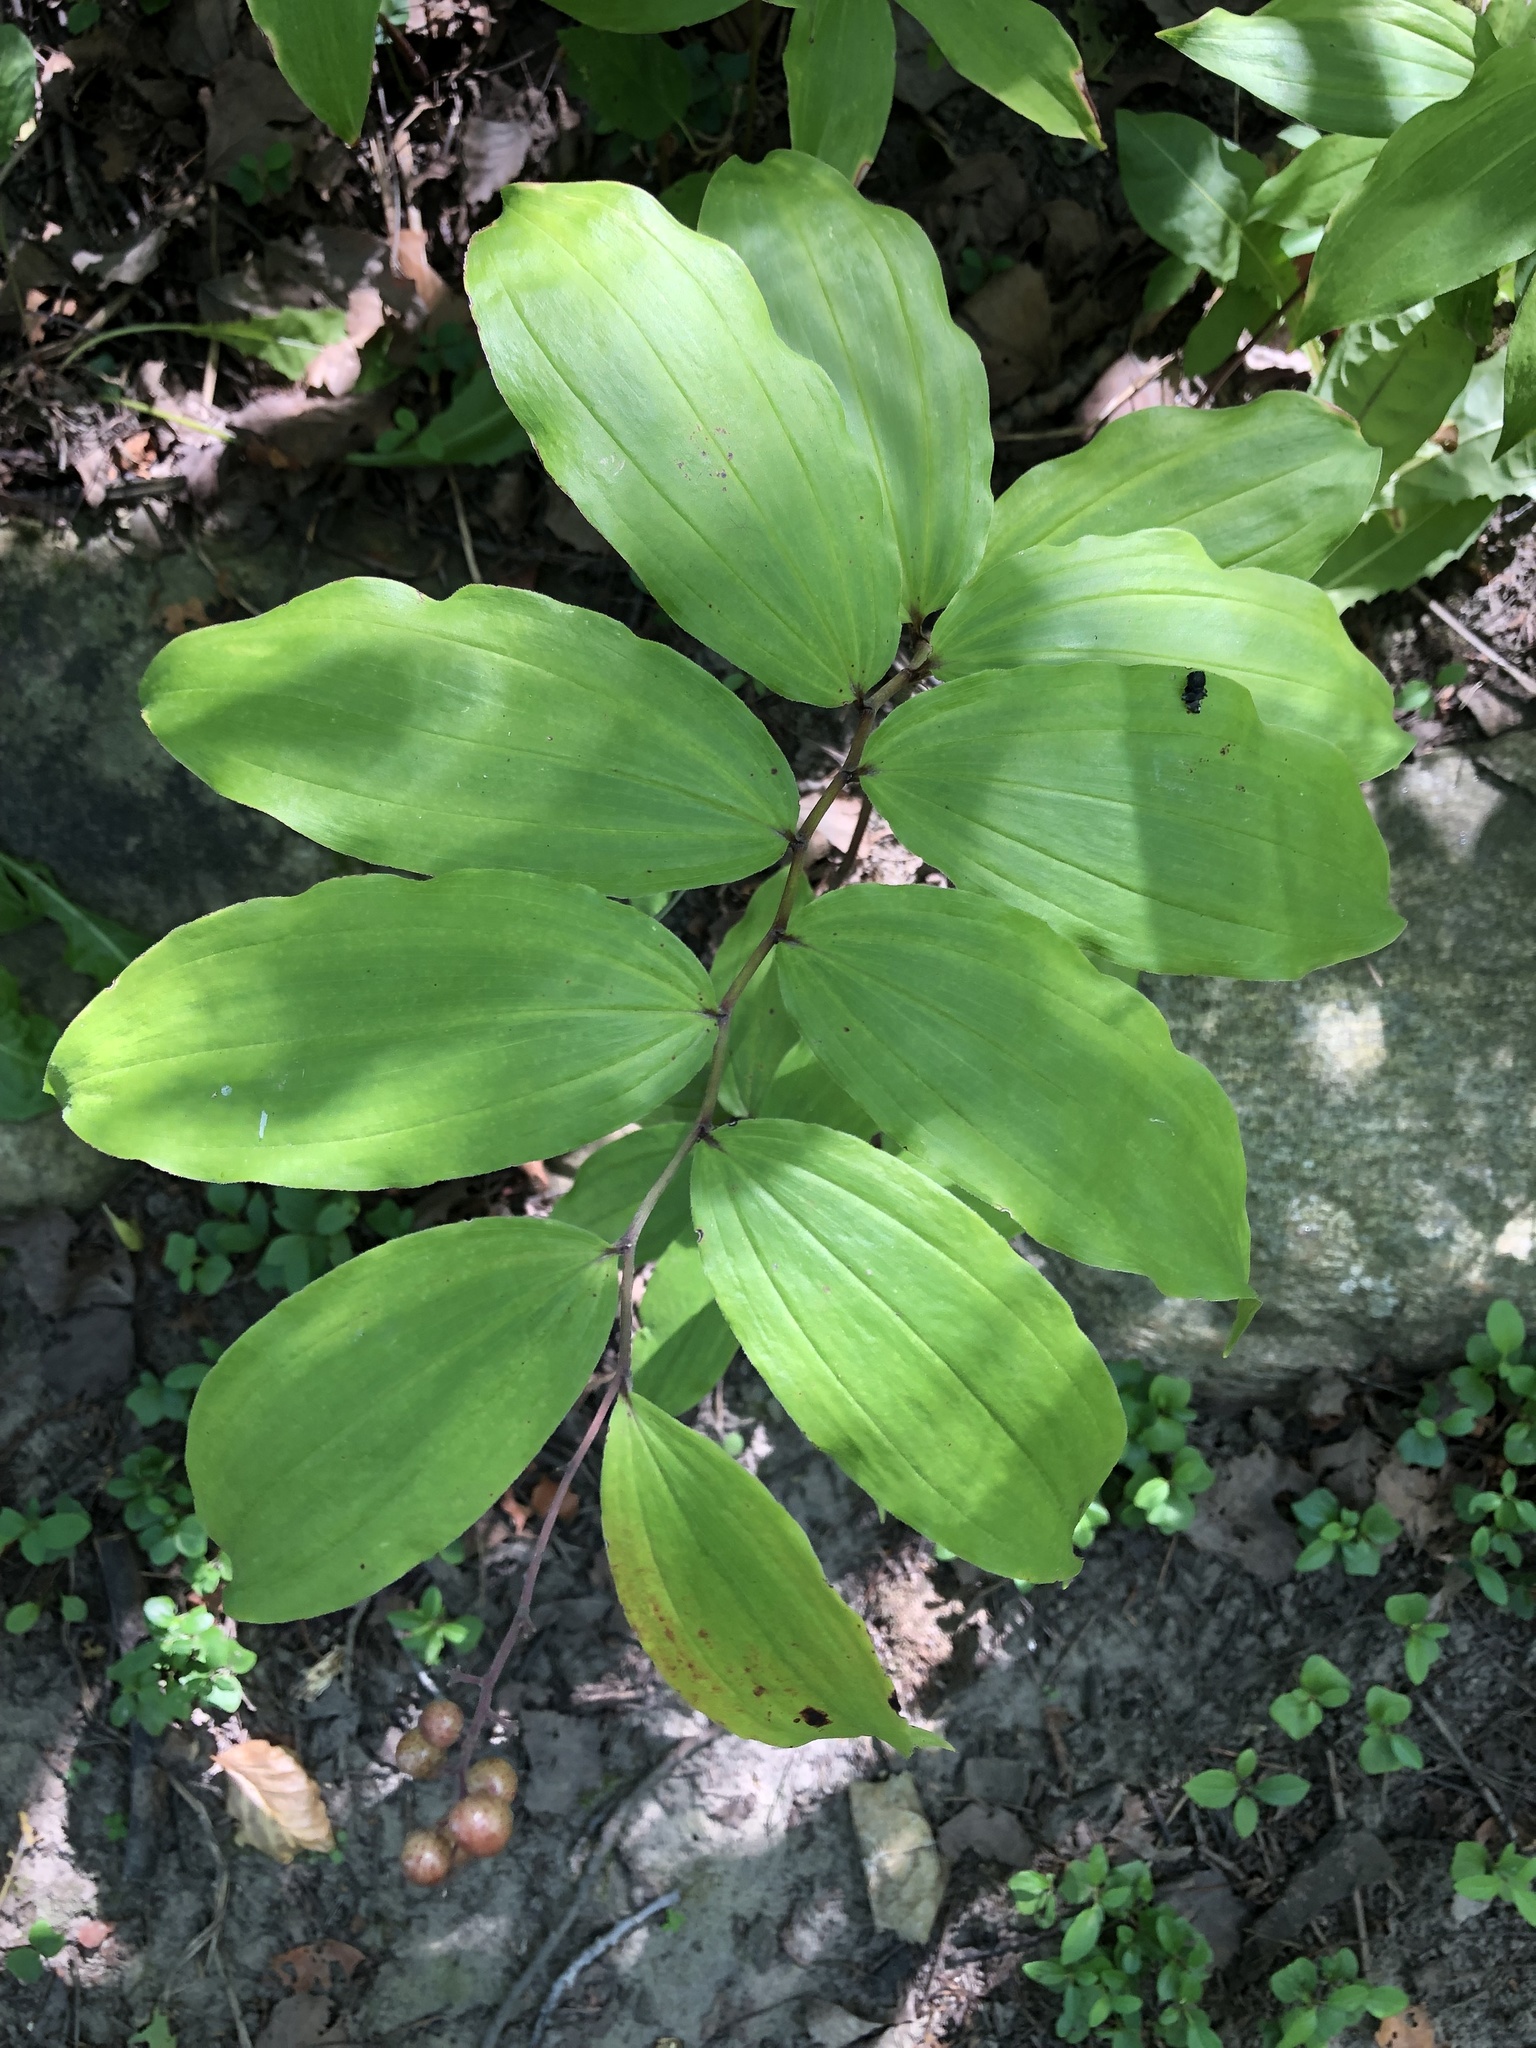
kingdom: Plantae
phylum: Tracheophyta
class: Liliopsida
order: Asparagales
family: Asparagaceae
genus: Maianthemum
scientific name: Maianthemum racemosum
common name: False spikenard
